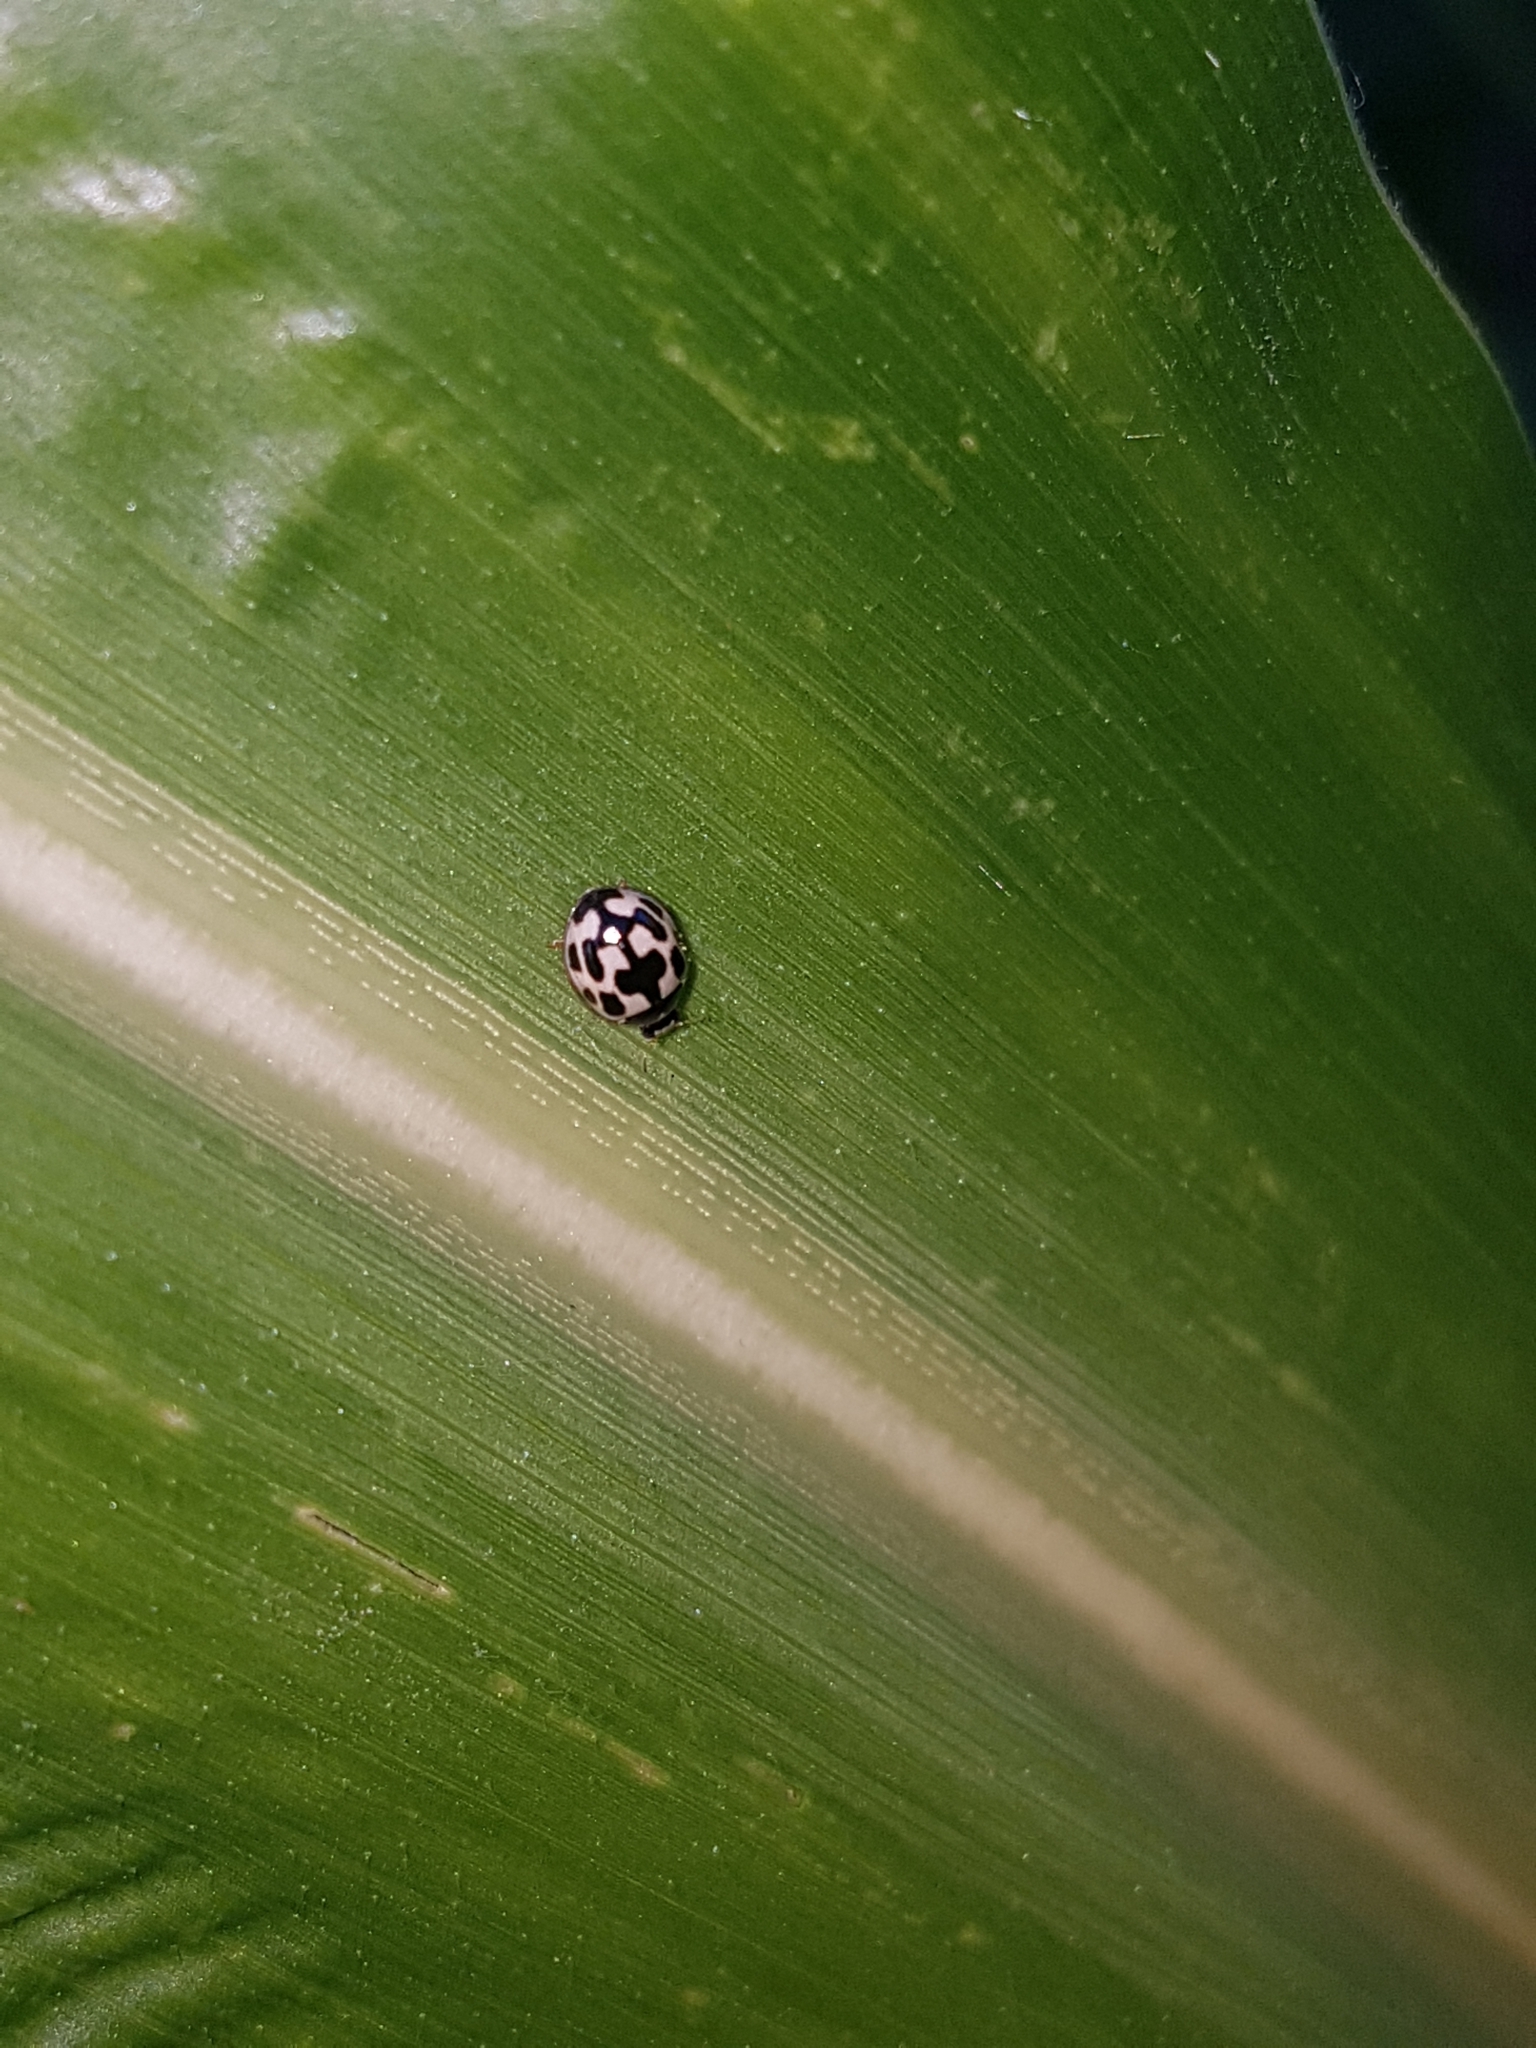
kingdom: Animalia
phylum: Arthropoda
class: Insecta
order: Coleoptera
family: Coccinellidae
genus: Propylaea
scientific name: Propylaea quatuordecimpunctata
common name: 14-spotted ladybird beetle
